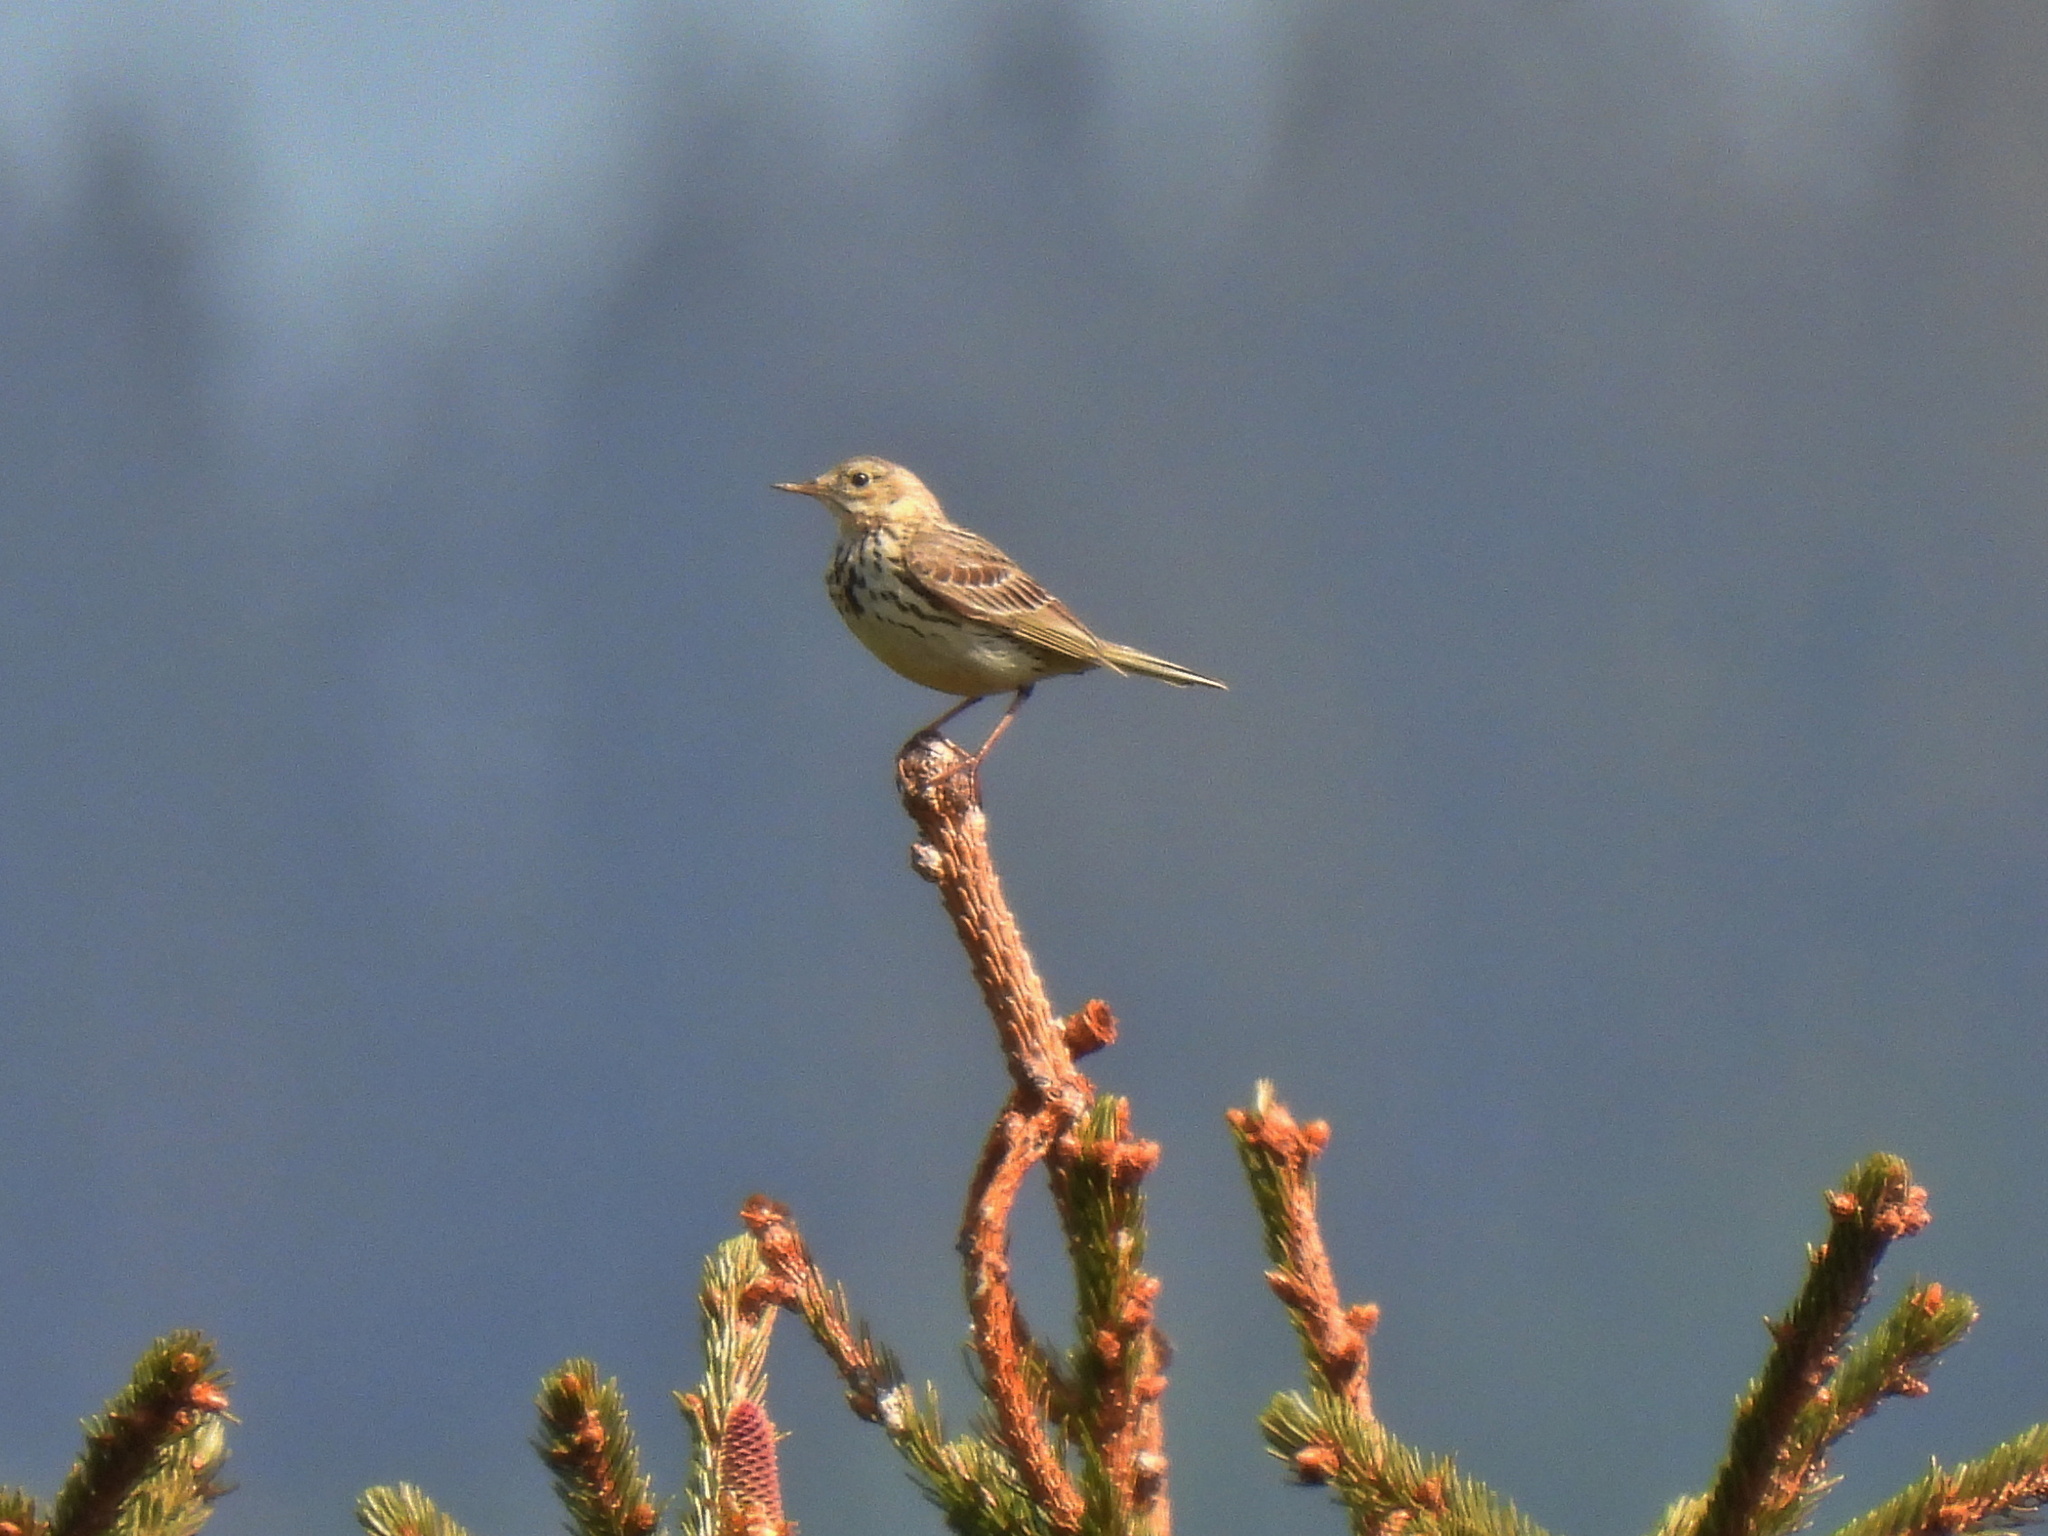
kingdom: Animalia
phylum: Chordata
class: Aves
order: Passeriformes
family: Motacillidae
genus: Anthus
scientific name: Anthus trivialis
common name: Tree pipit
